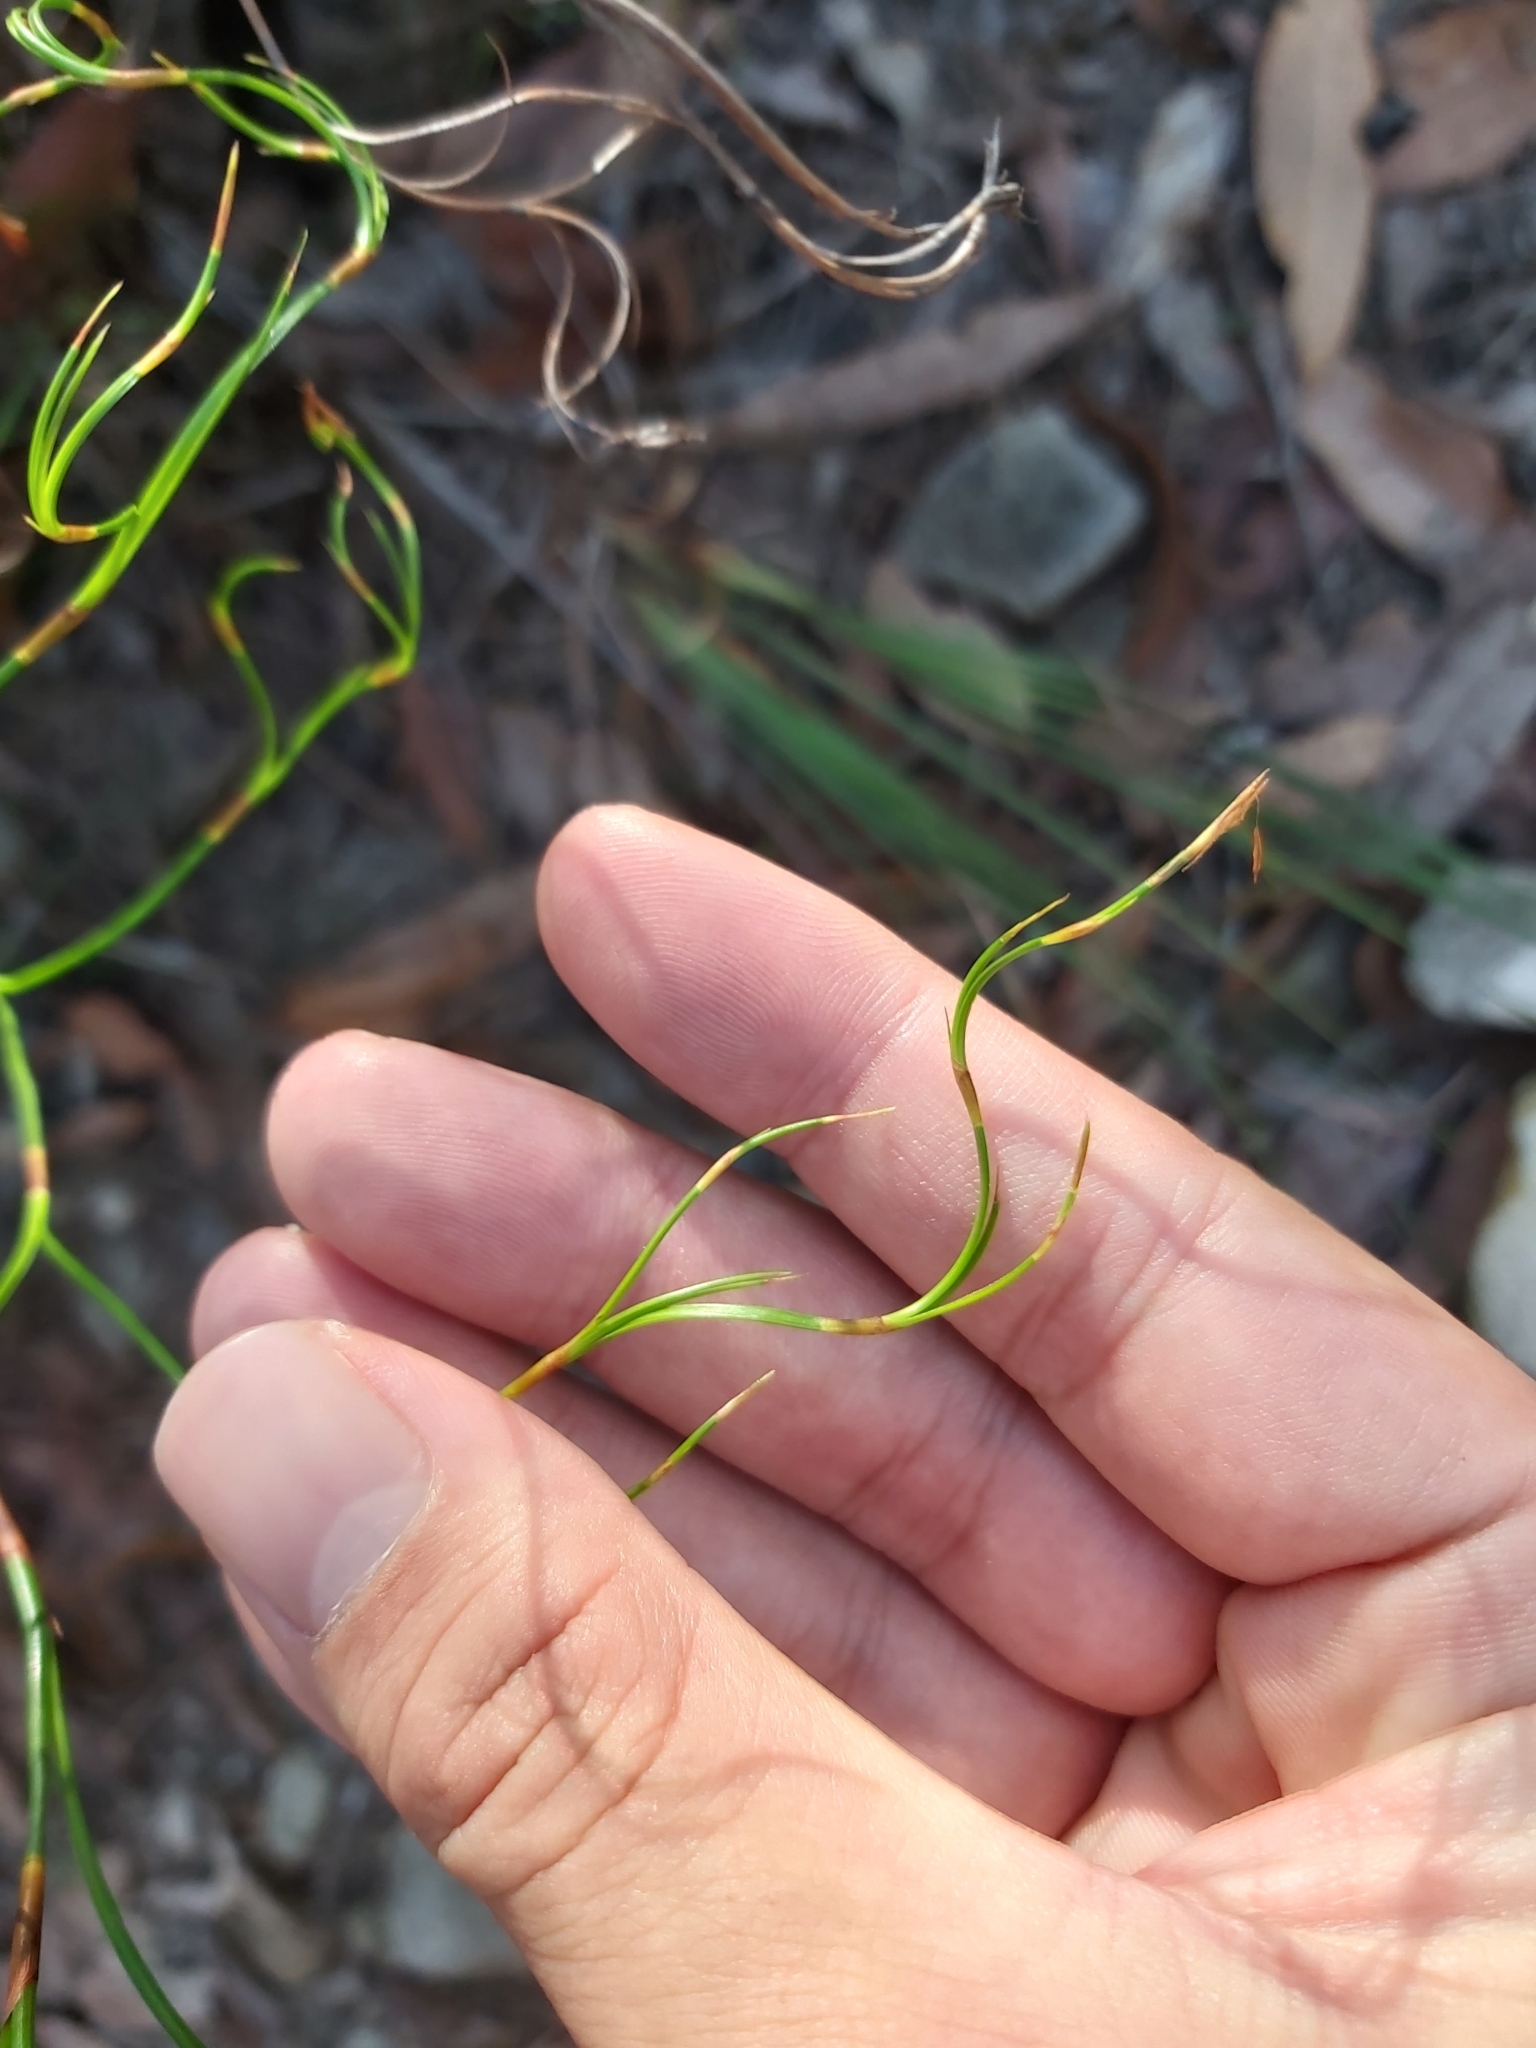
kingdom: Plantae
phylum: Tracheophyta
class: Liliopsida
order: Poales
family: Cyperaceae
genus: Caustis
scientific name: Caustis flexuosa
